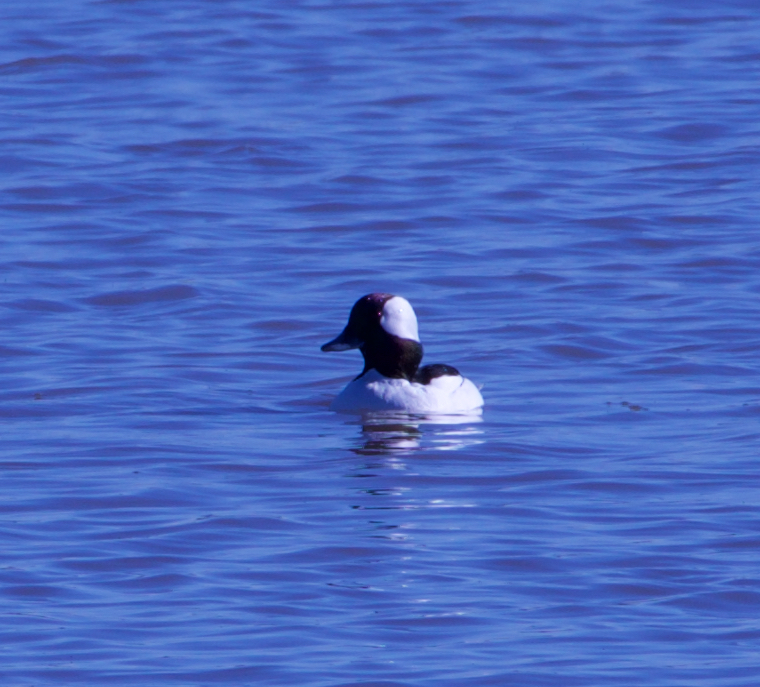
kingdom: Animalia
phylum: Chordata
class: Aves
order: Anseriformes
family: Anatidae
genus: Bucephala
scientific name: Bucephala albeola
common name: Bufflehead
